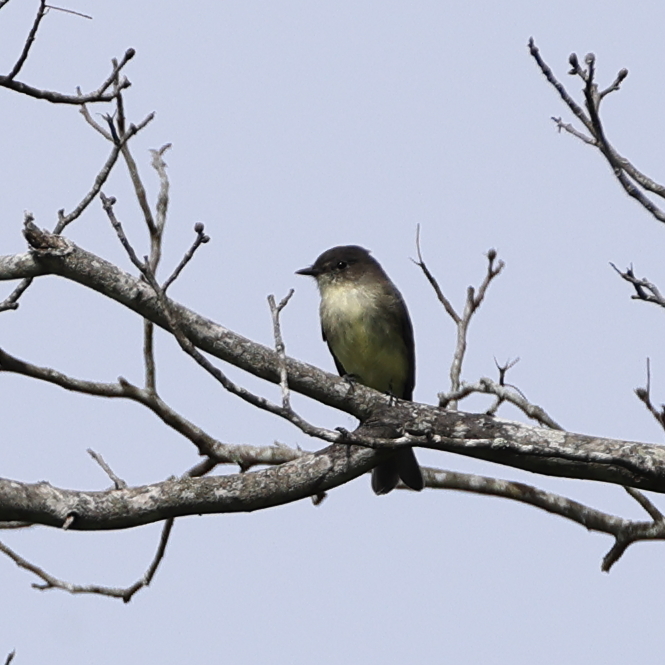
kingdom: Animalia
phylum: Chordata
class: Aves
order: Passeriformes
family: Tyrannidae
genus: Contopus
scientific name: Contopus virens
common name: Eastern wood-pewee
